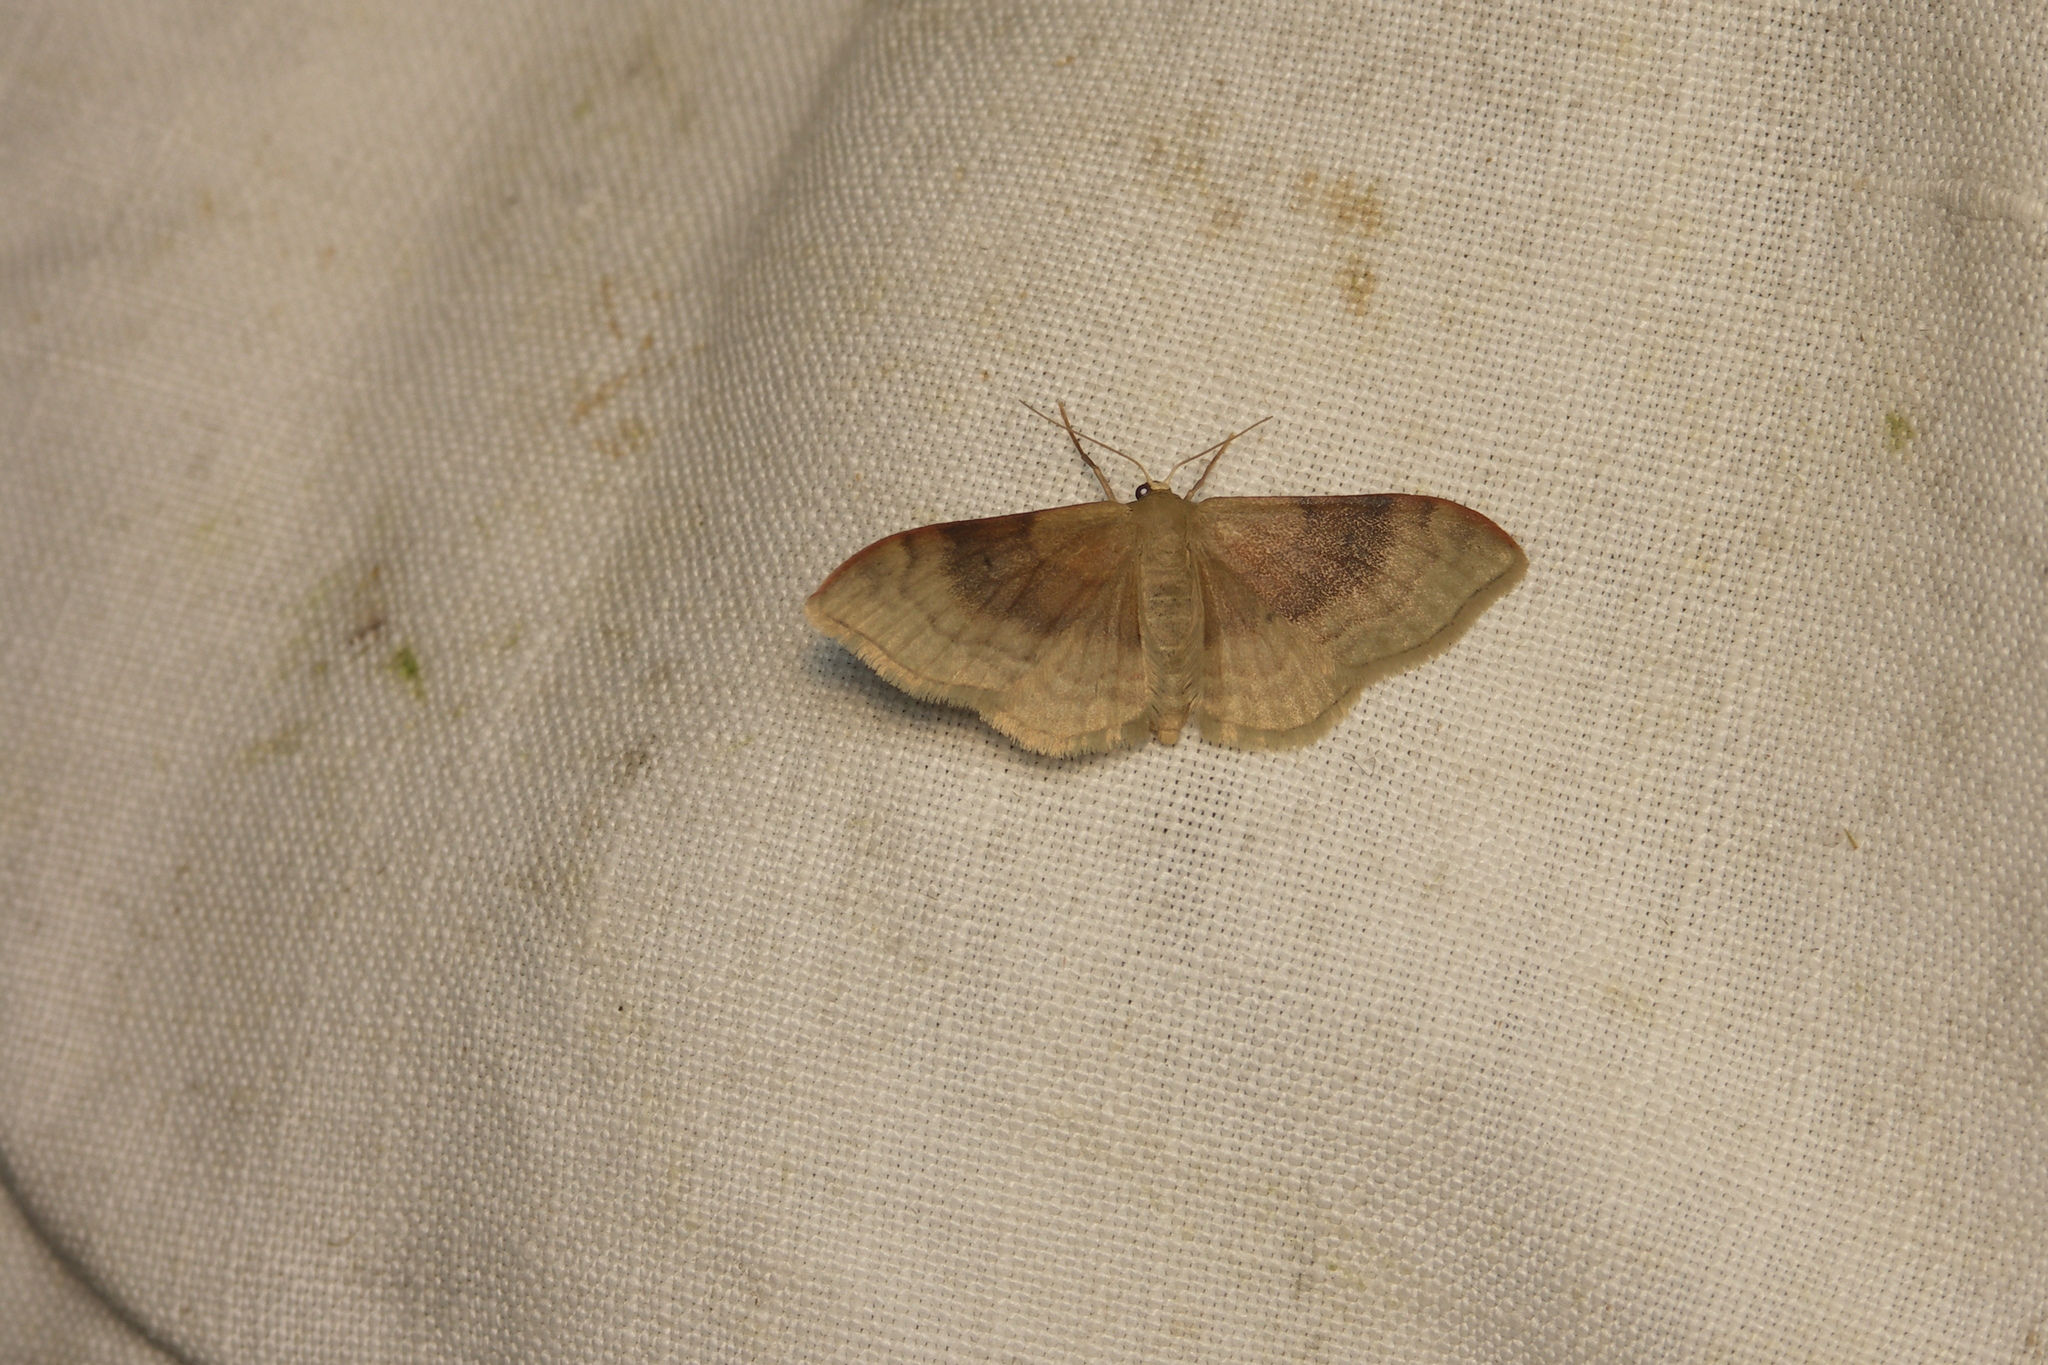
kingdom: Animalia
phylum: Arthropoda
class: Insecta
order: Lepidoptera
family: Geometridae
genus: Idaea
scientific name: Idaea degeneraria
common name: Portland ribbon wave
